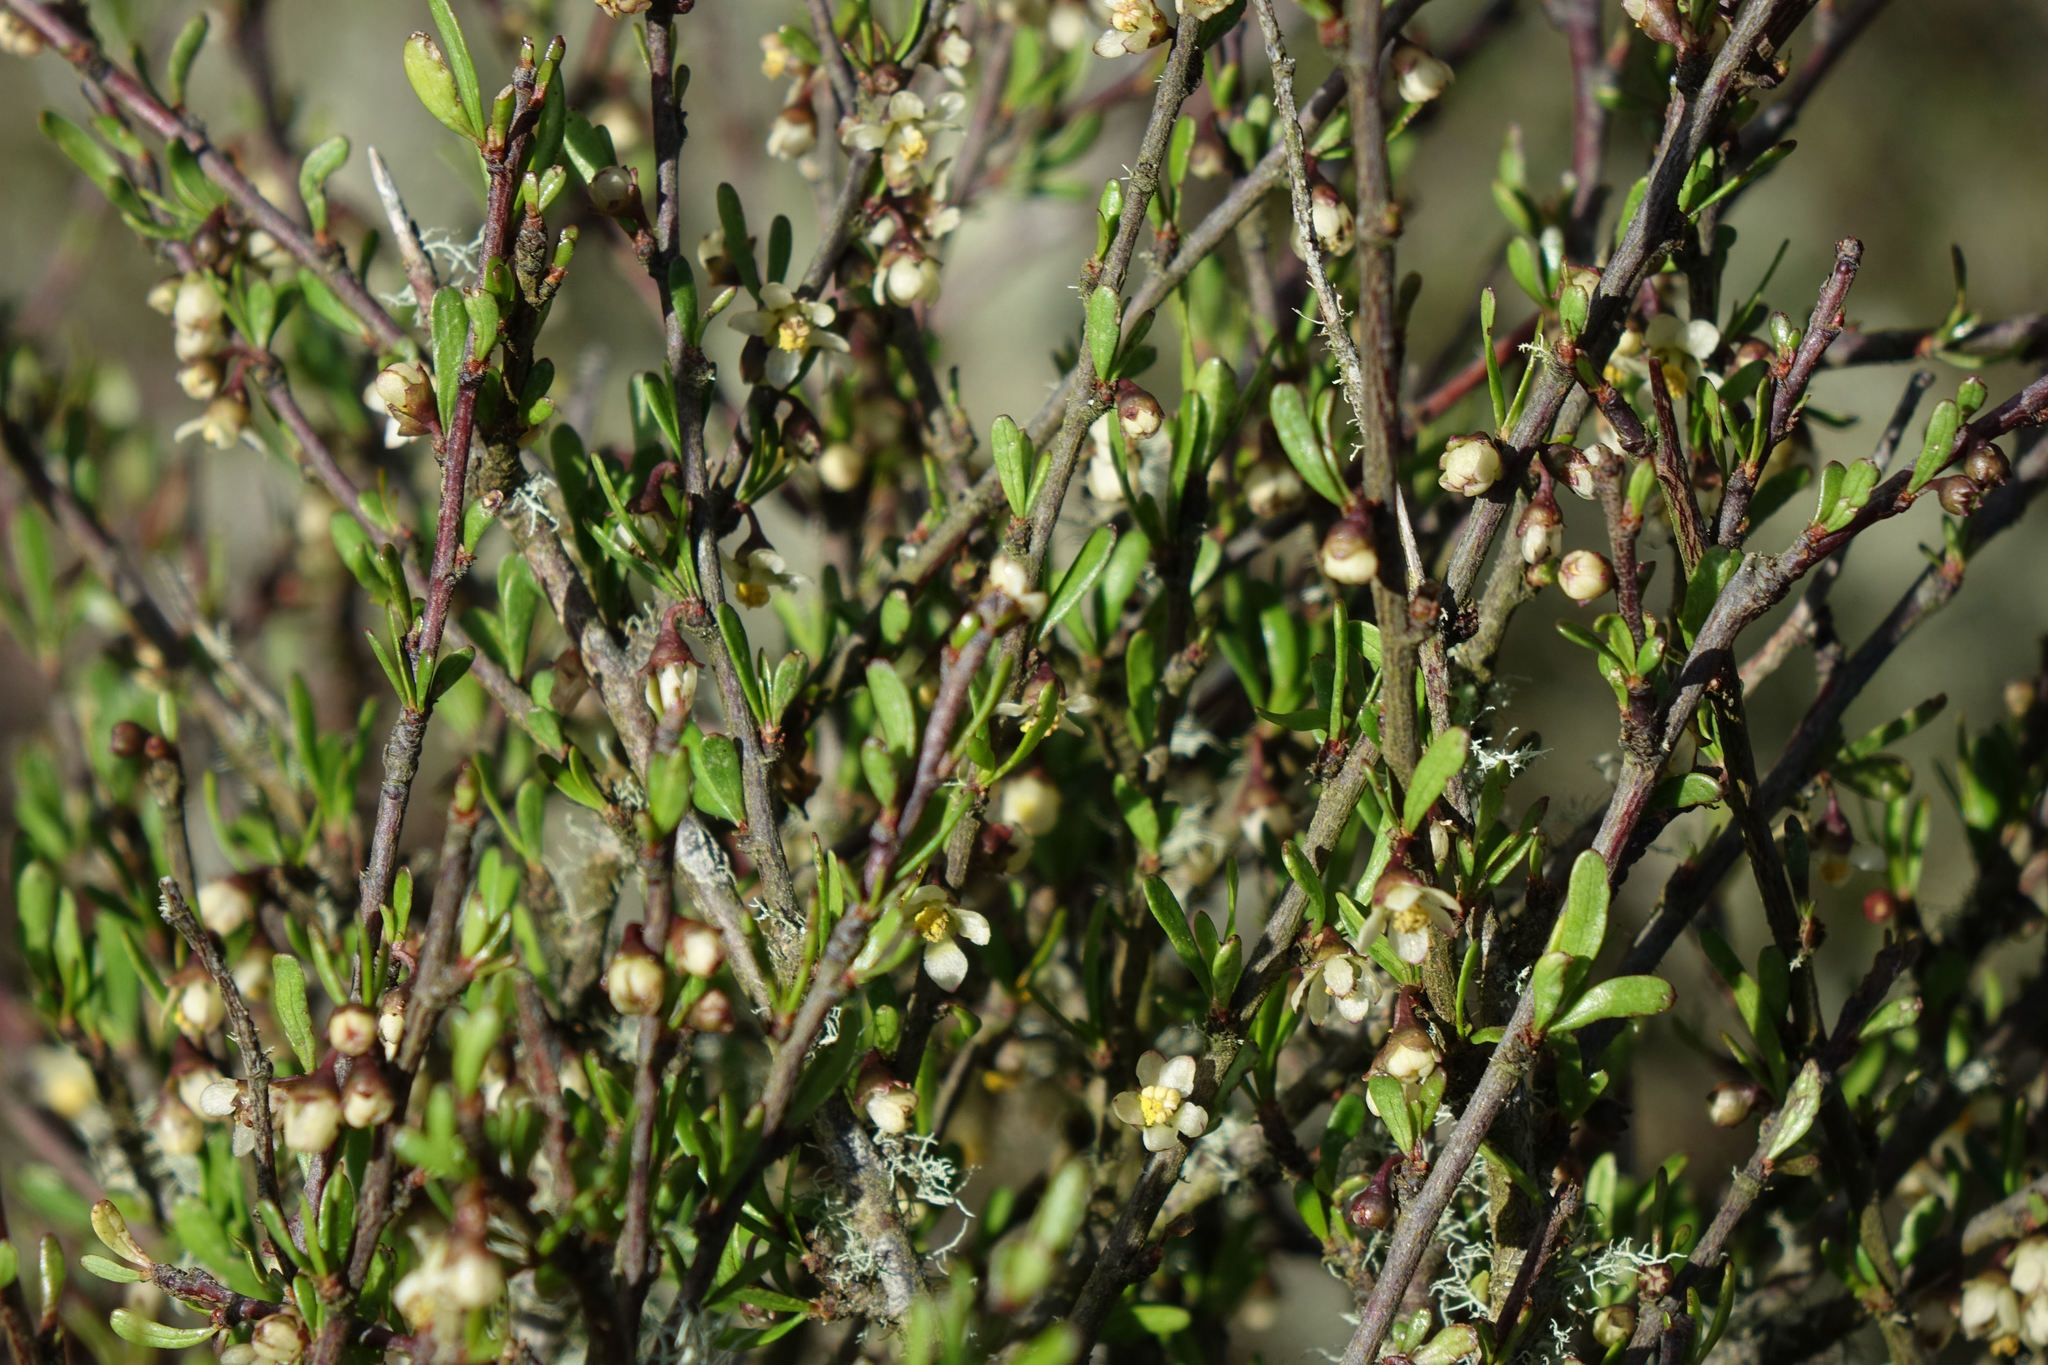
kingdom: Plantae
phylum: Tracheophyta
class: Magnoliopsida
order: Malvales
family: Malvaceae
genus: Plagianthus
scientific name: Plagianthus divaricatus
